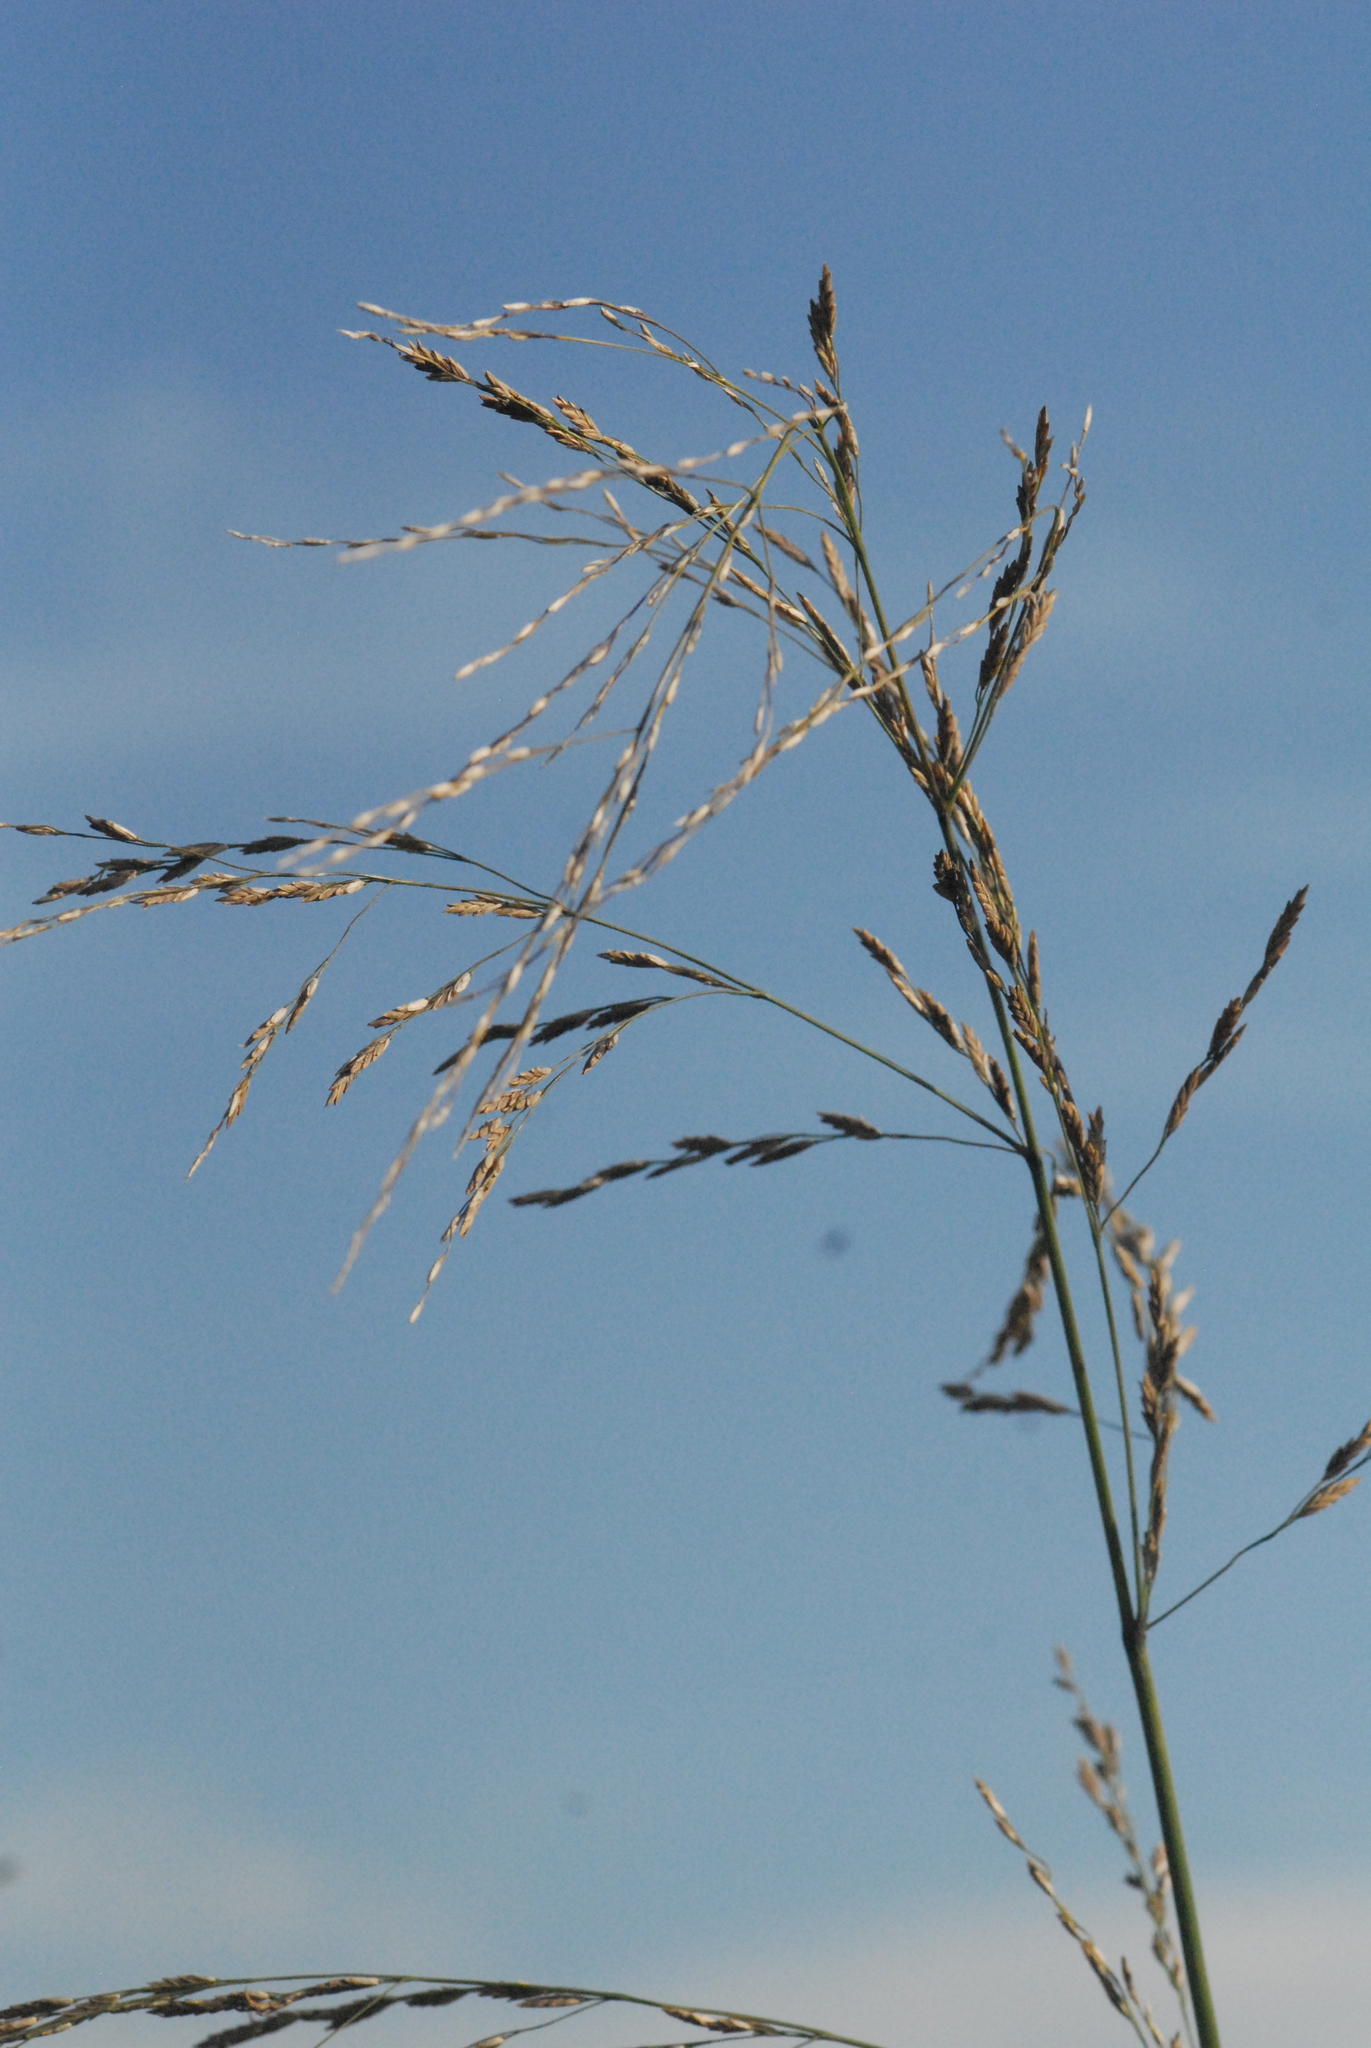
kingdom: Plantae
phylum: Tracheophyta
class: Liliopsida
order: Poales
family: Poaceae
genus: Glyceria
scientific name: Glyceria maxima
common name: Reed mannagrass
